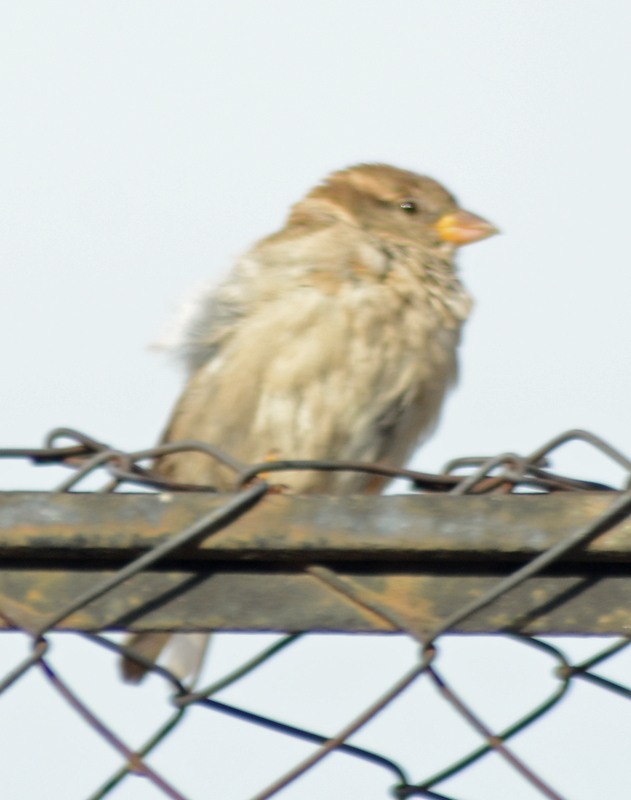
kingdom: Animalia
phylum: Chordata
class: Aves
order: Passeriformes
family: Passeridae
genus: Passer
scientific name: Passer domesticus
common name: House sparrow
